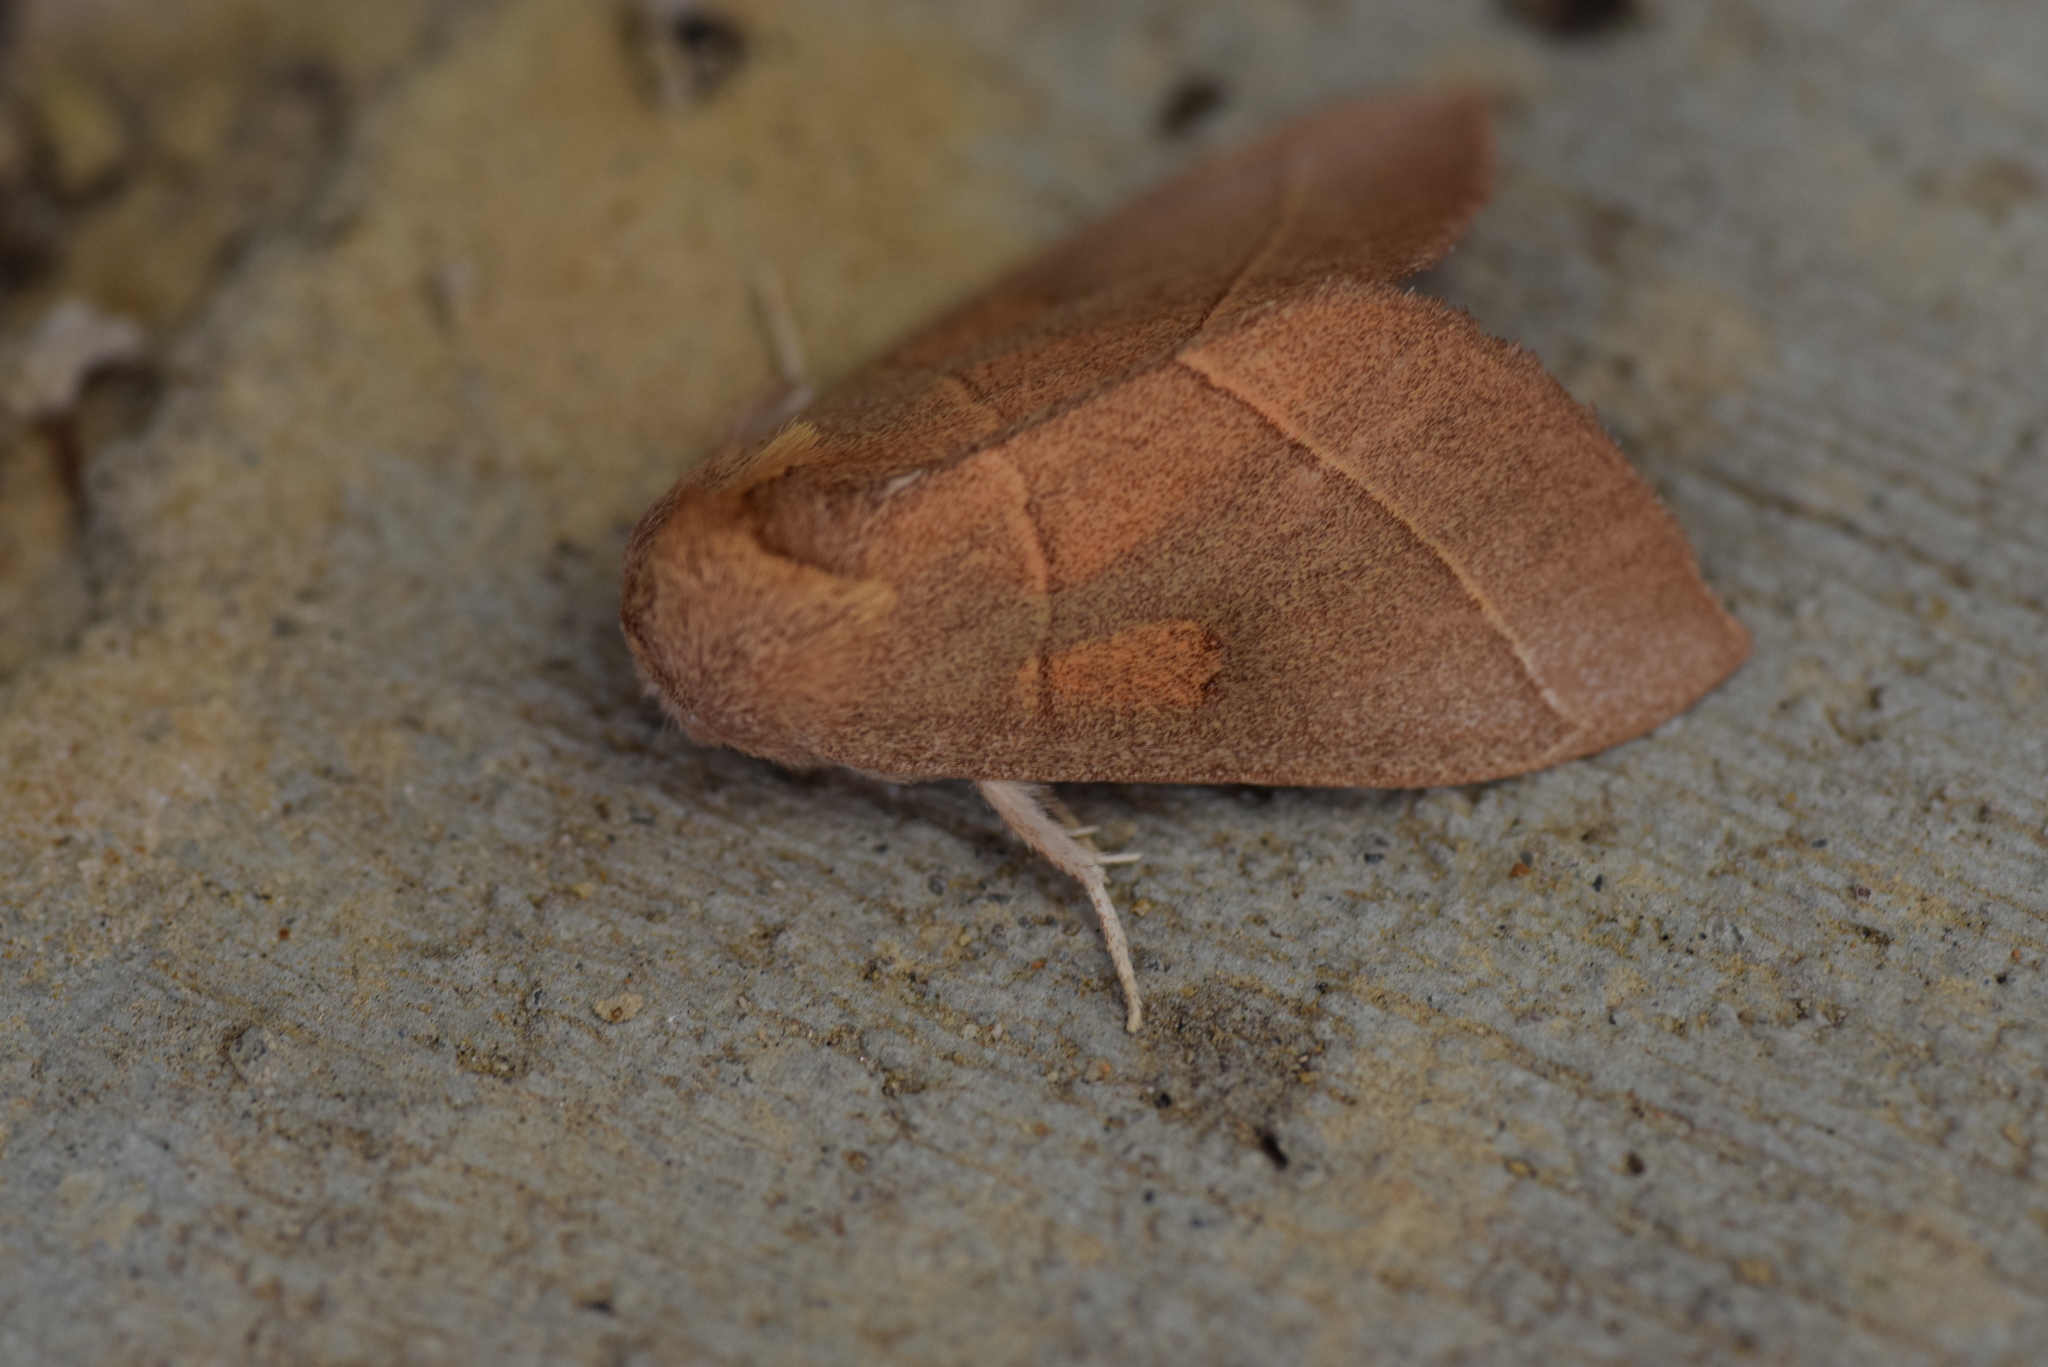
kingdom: Animalia
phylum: Arthropoda
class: Insecta
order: Lepidoptera
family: Notodontidae
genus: Nadata
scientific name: Nadata gibbosa
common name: White-dotted prominent
